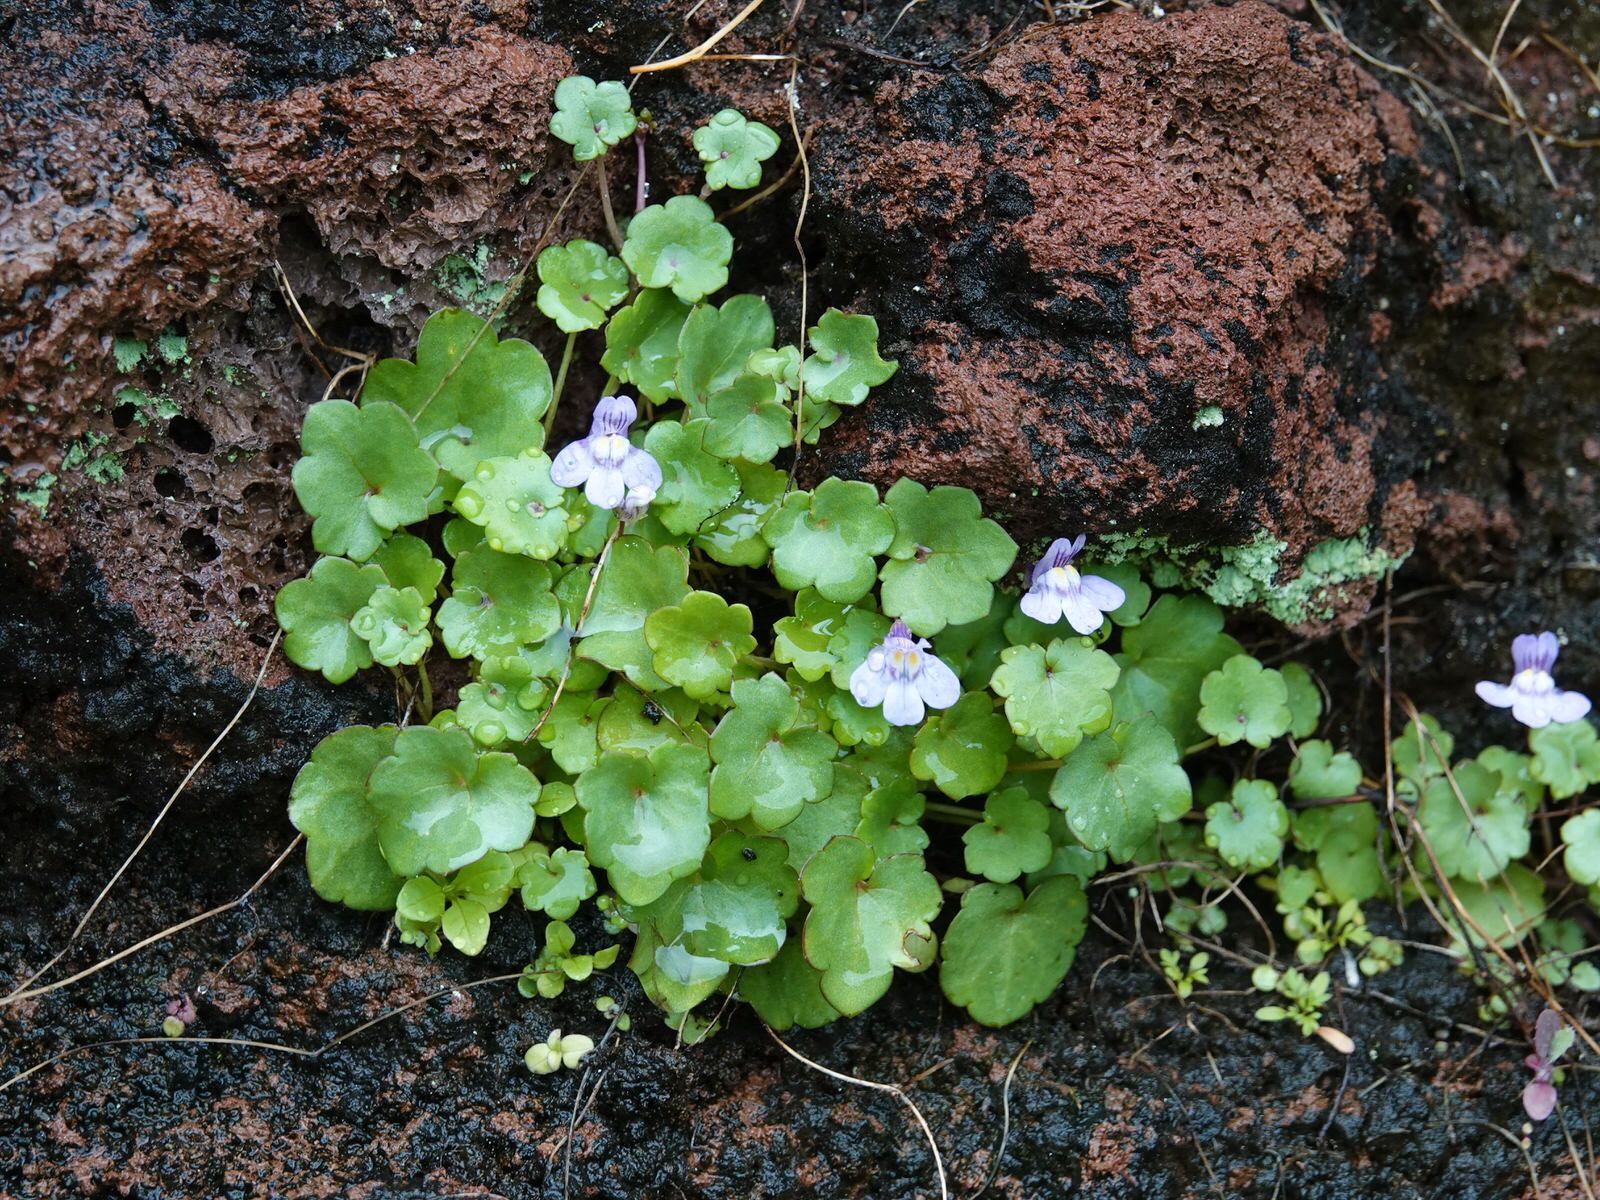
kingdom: Plantae
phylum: Tracheophyta
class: Magnoliopsida
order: Lamiales
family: Plantaginaceae
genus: Cymbalaria
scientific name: Cymbalaria muralis
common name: Ivy-leaved toadflax
